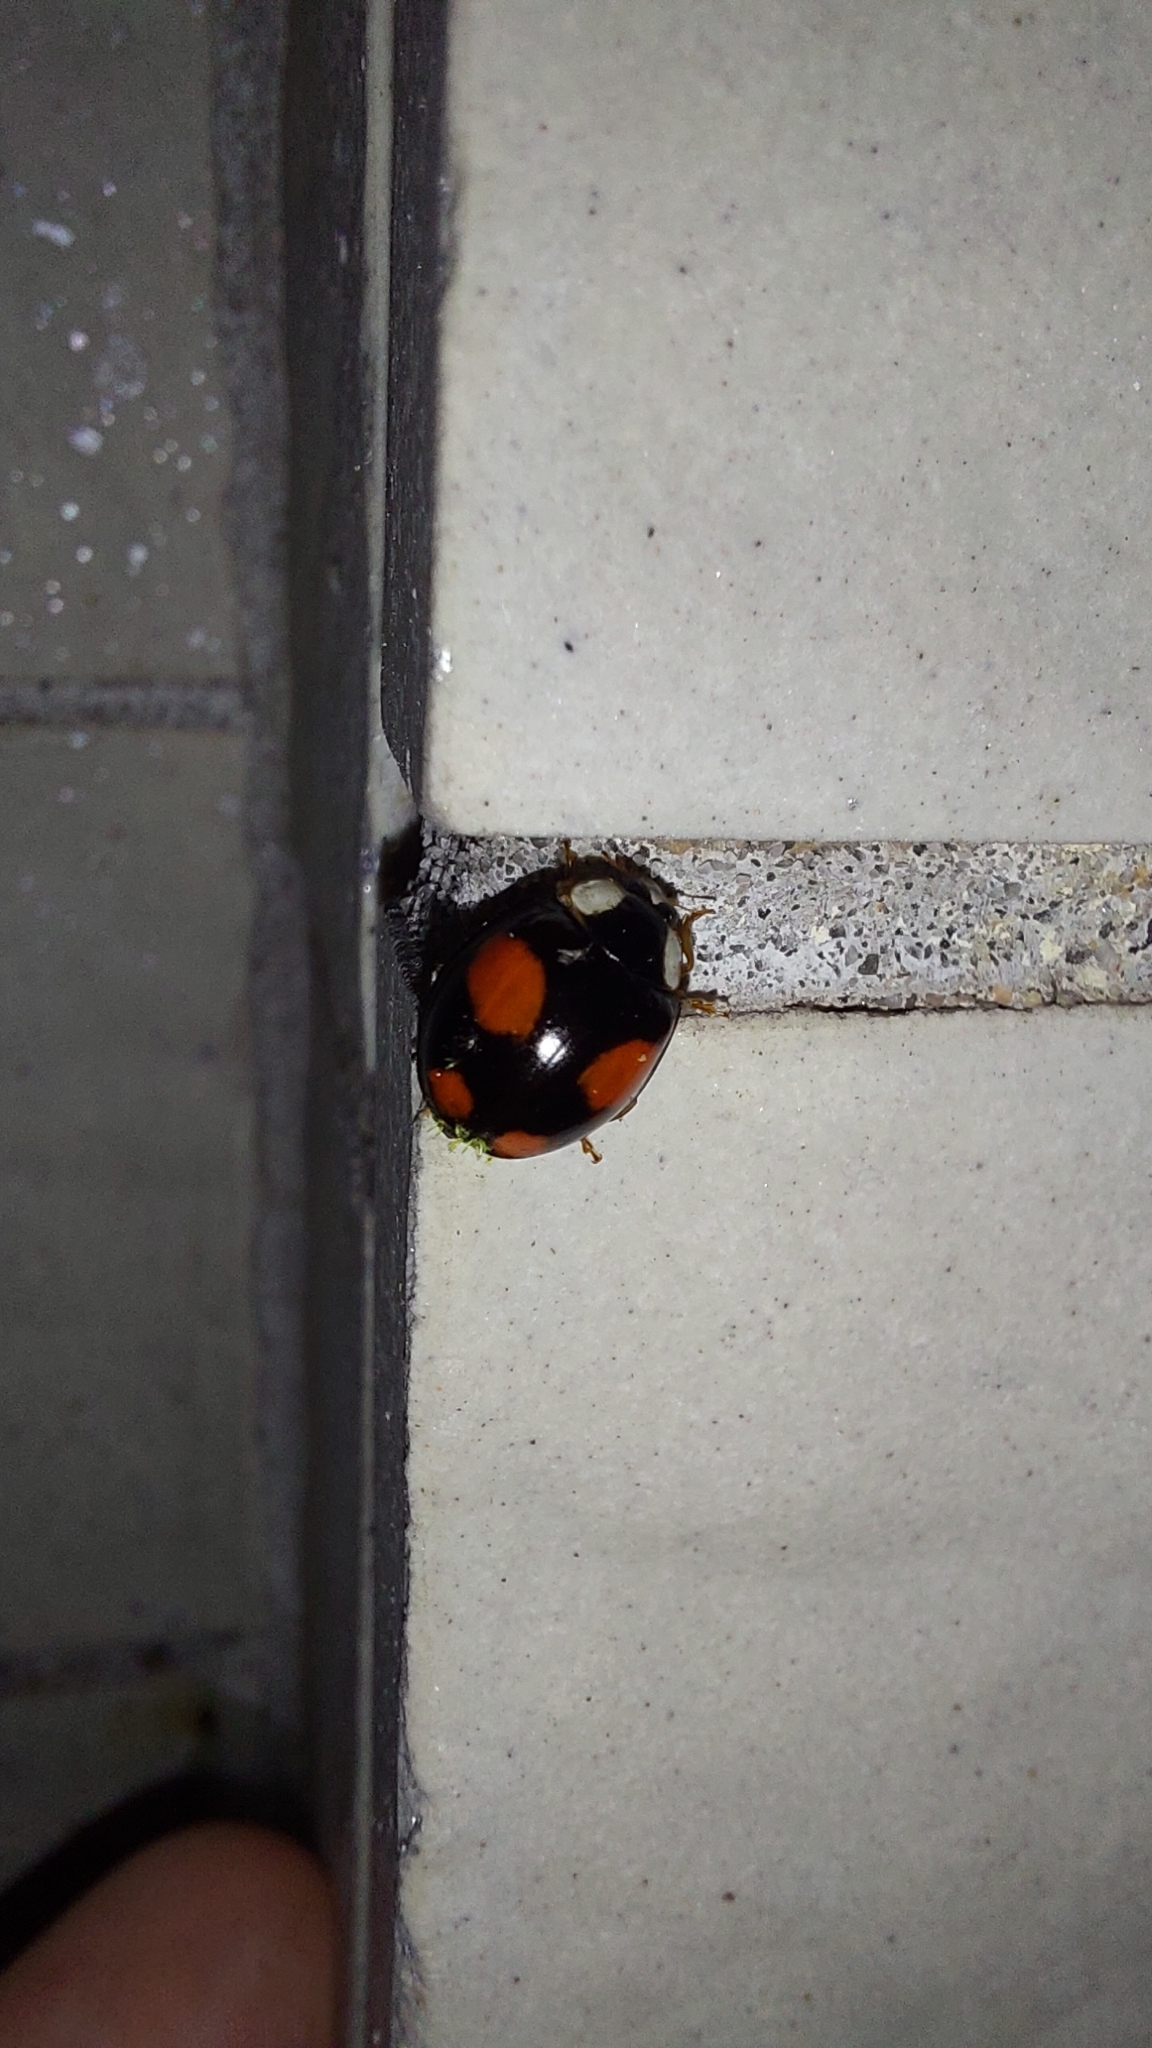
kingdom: Animalia
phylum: Arthropoda
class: Insecta
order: Coleoptera
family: Coccinellidae
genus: Harmonia
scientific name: Harmonia axyridis
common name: Harlequin ladybird
